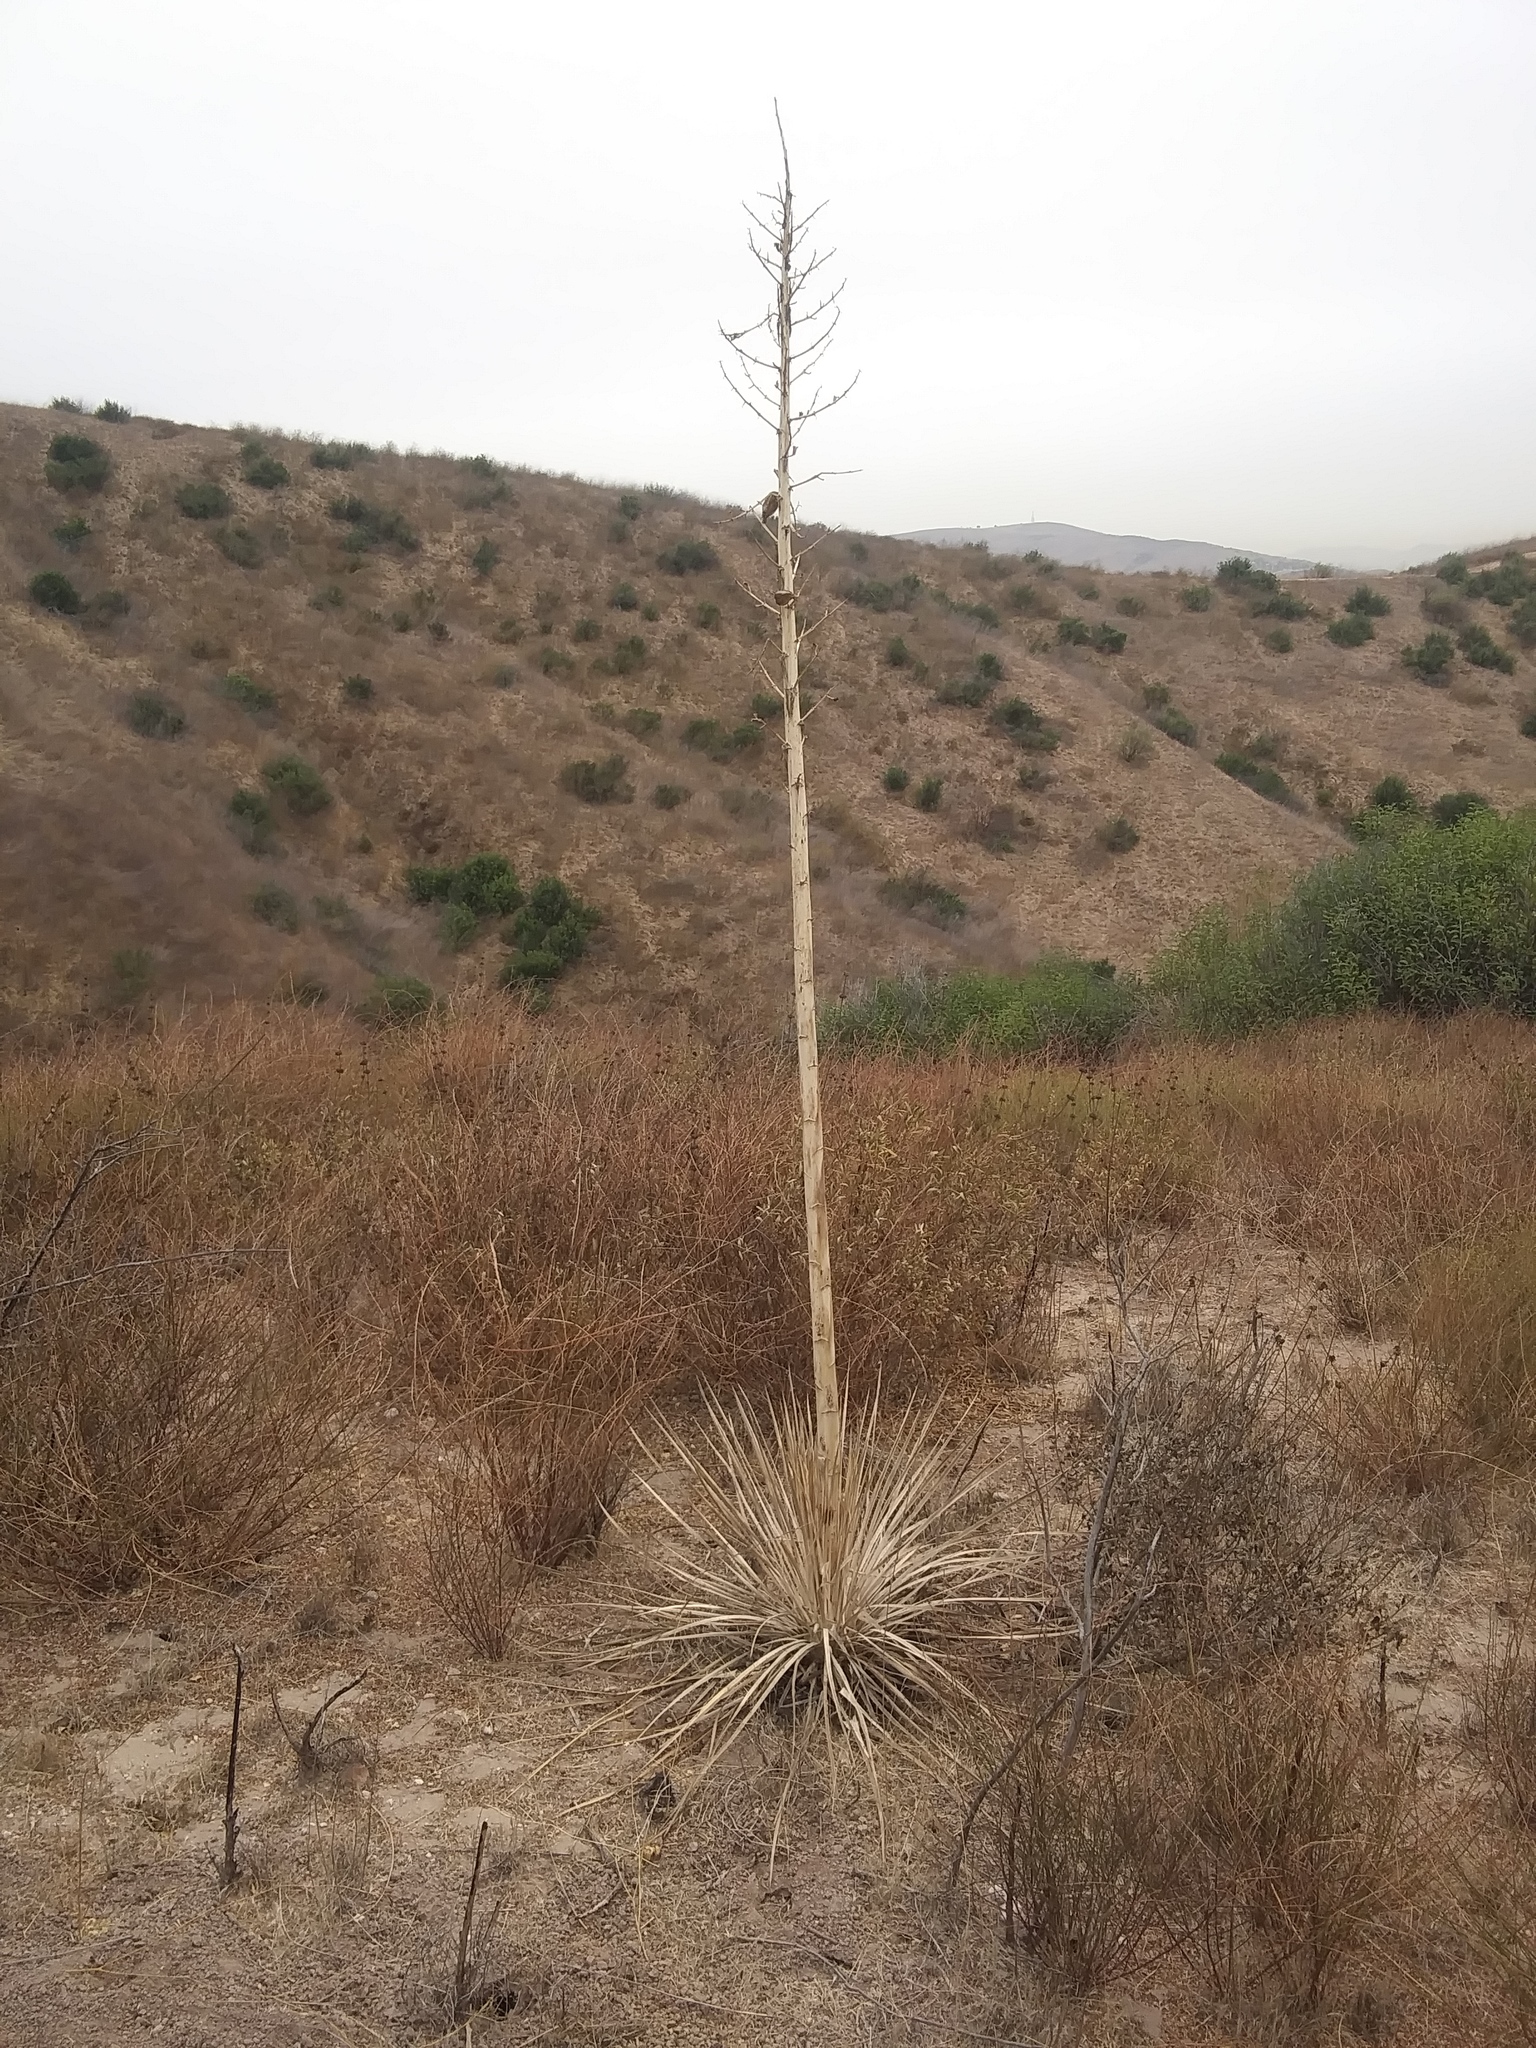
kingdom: Plantae
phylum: Tracheophyta
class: Liliopsida
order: Asparagales
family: Asparagaceae
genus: Hesperoyucca
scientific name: Hesperoyucca whipplei
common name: Our lord's-candle
